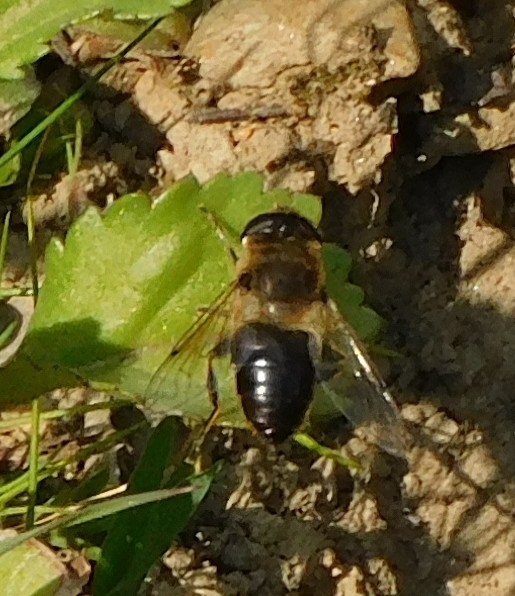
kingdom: Animalia
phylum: Arthropoda
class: Insecta
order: Diptera
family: Syrphidae
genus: Eristalis
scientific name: Eristalis tenax
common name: Drone fly
